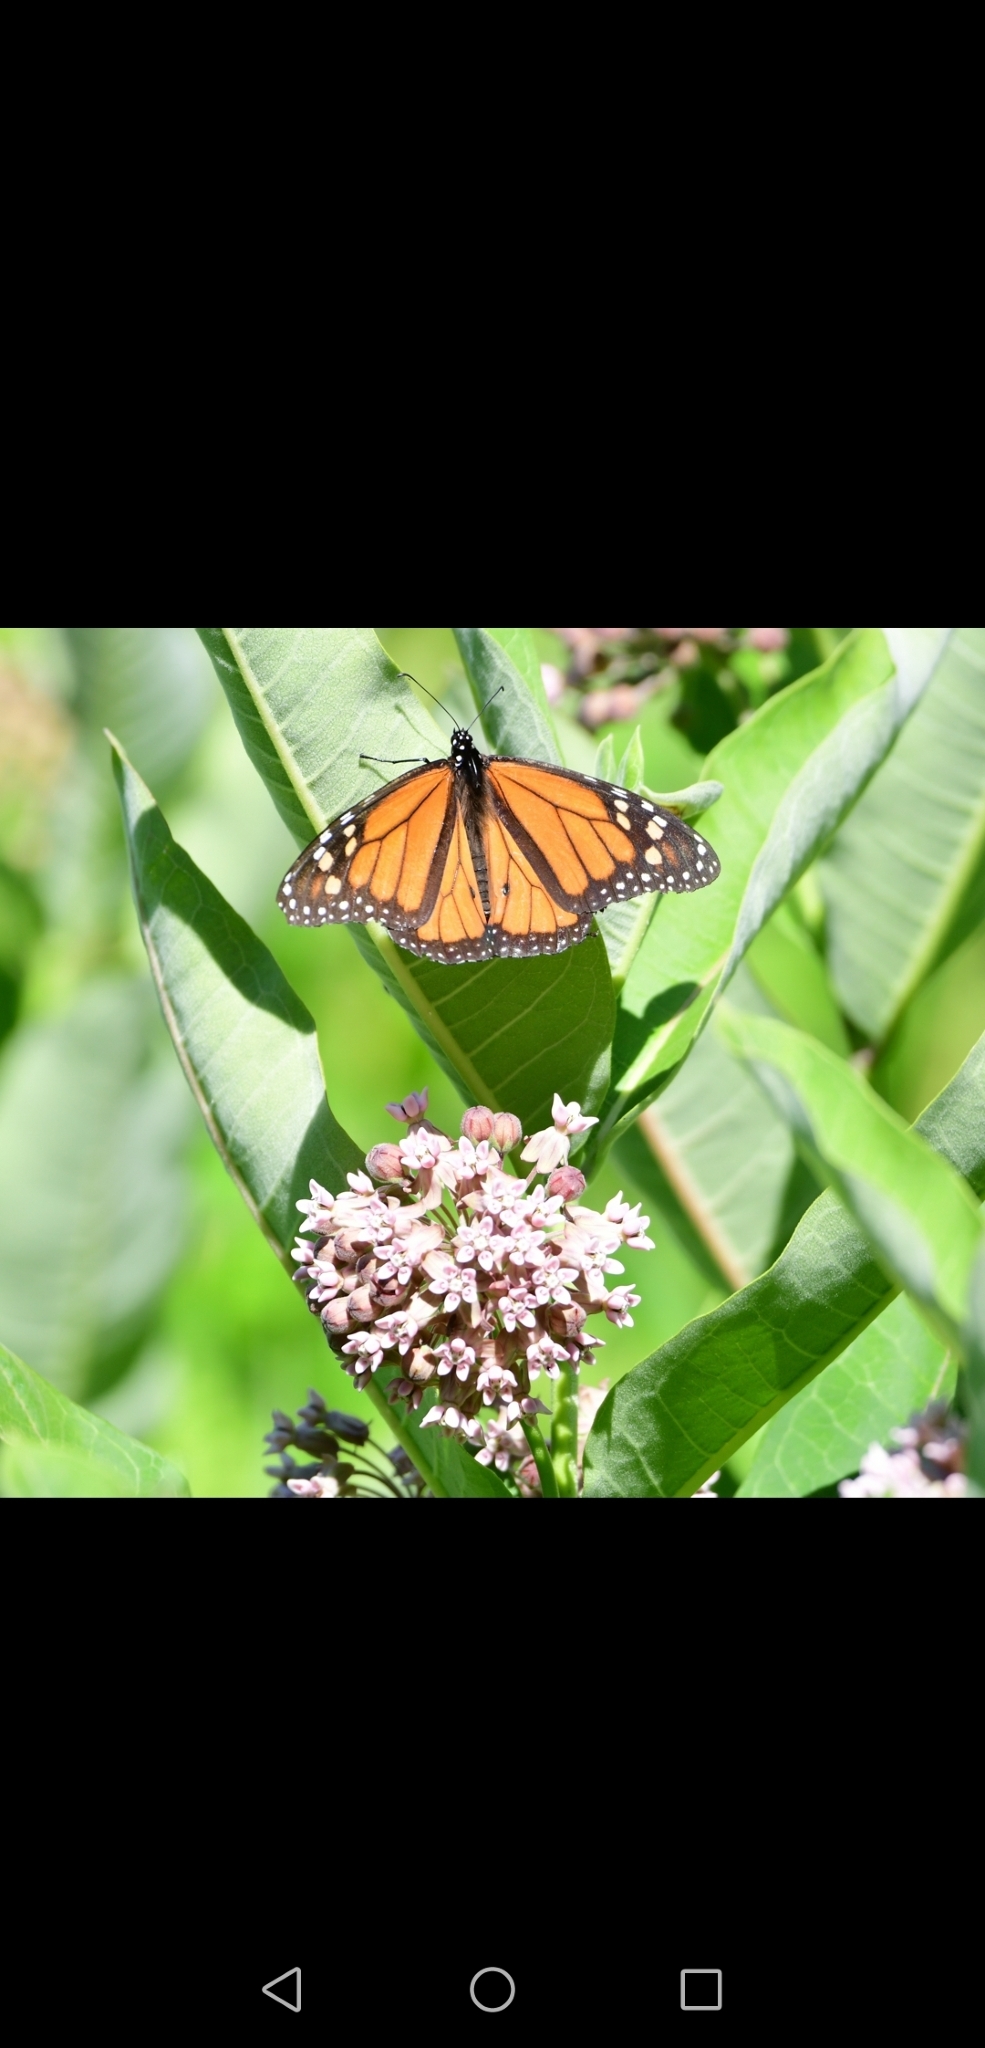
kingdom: Animalia
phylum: Arthropoda
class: Insecta
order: Lepidoptera
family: Nymphalidae
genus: Danaus
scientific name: Danaus plexippus
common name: Monarch
